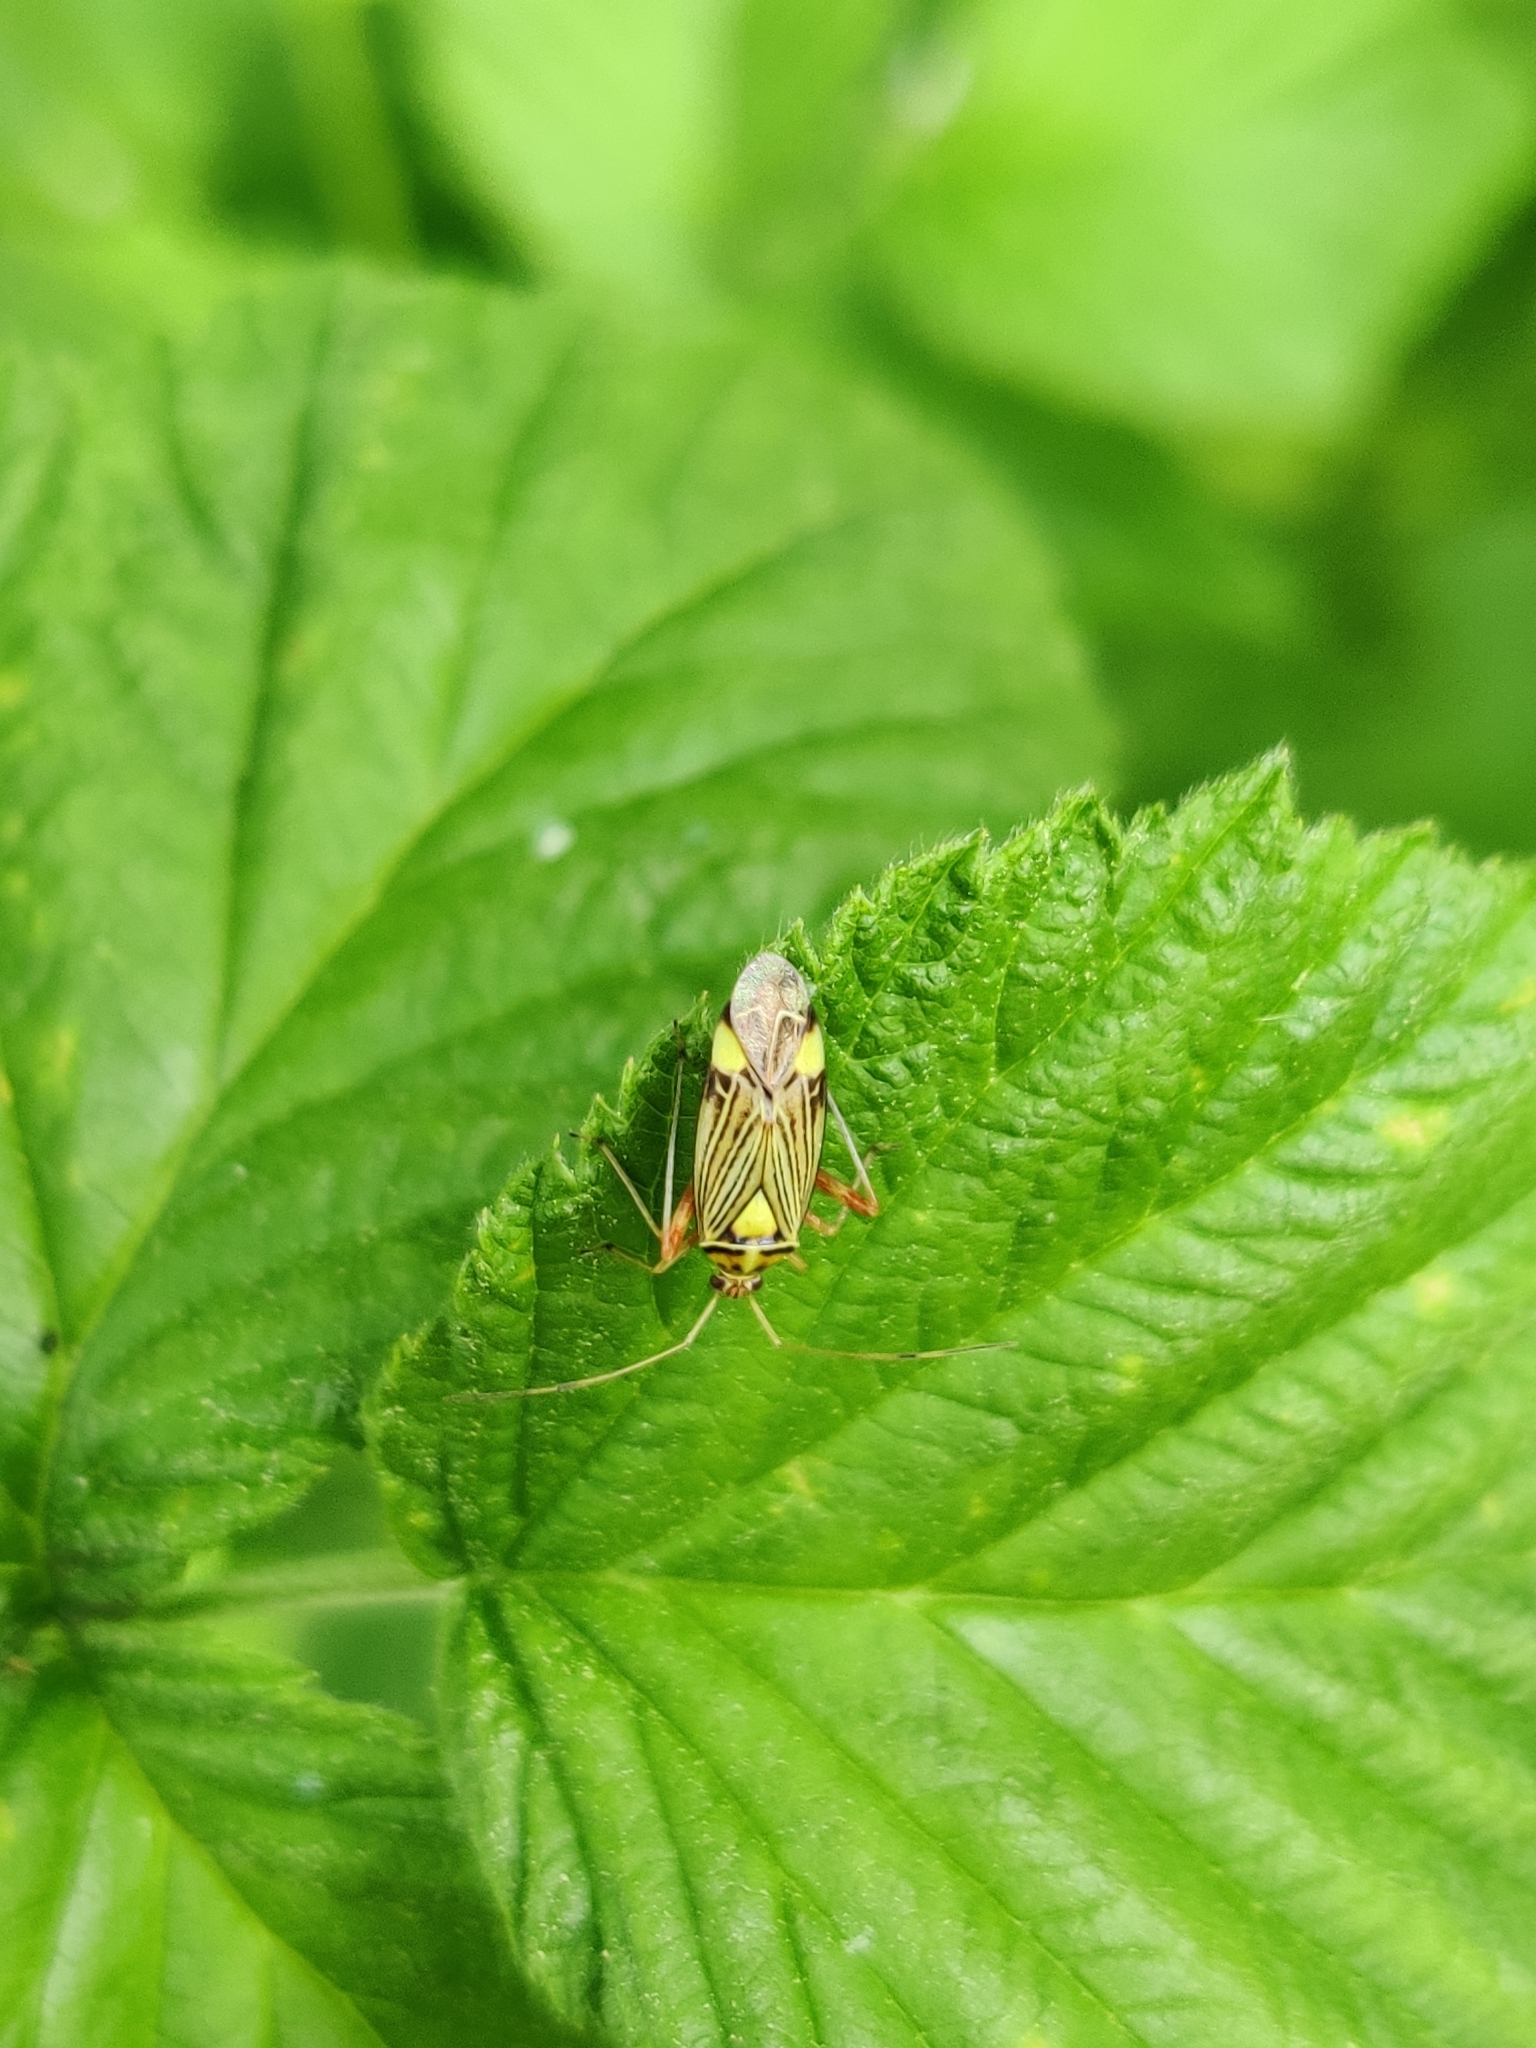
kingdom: Animalia
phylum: Arthropoda
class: Insecta
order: Hemiptera
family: Miridae
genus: Rhabdomiris
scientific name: Rhabdomiris striatellus
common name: Plant bug
